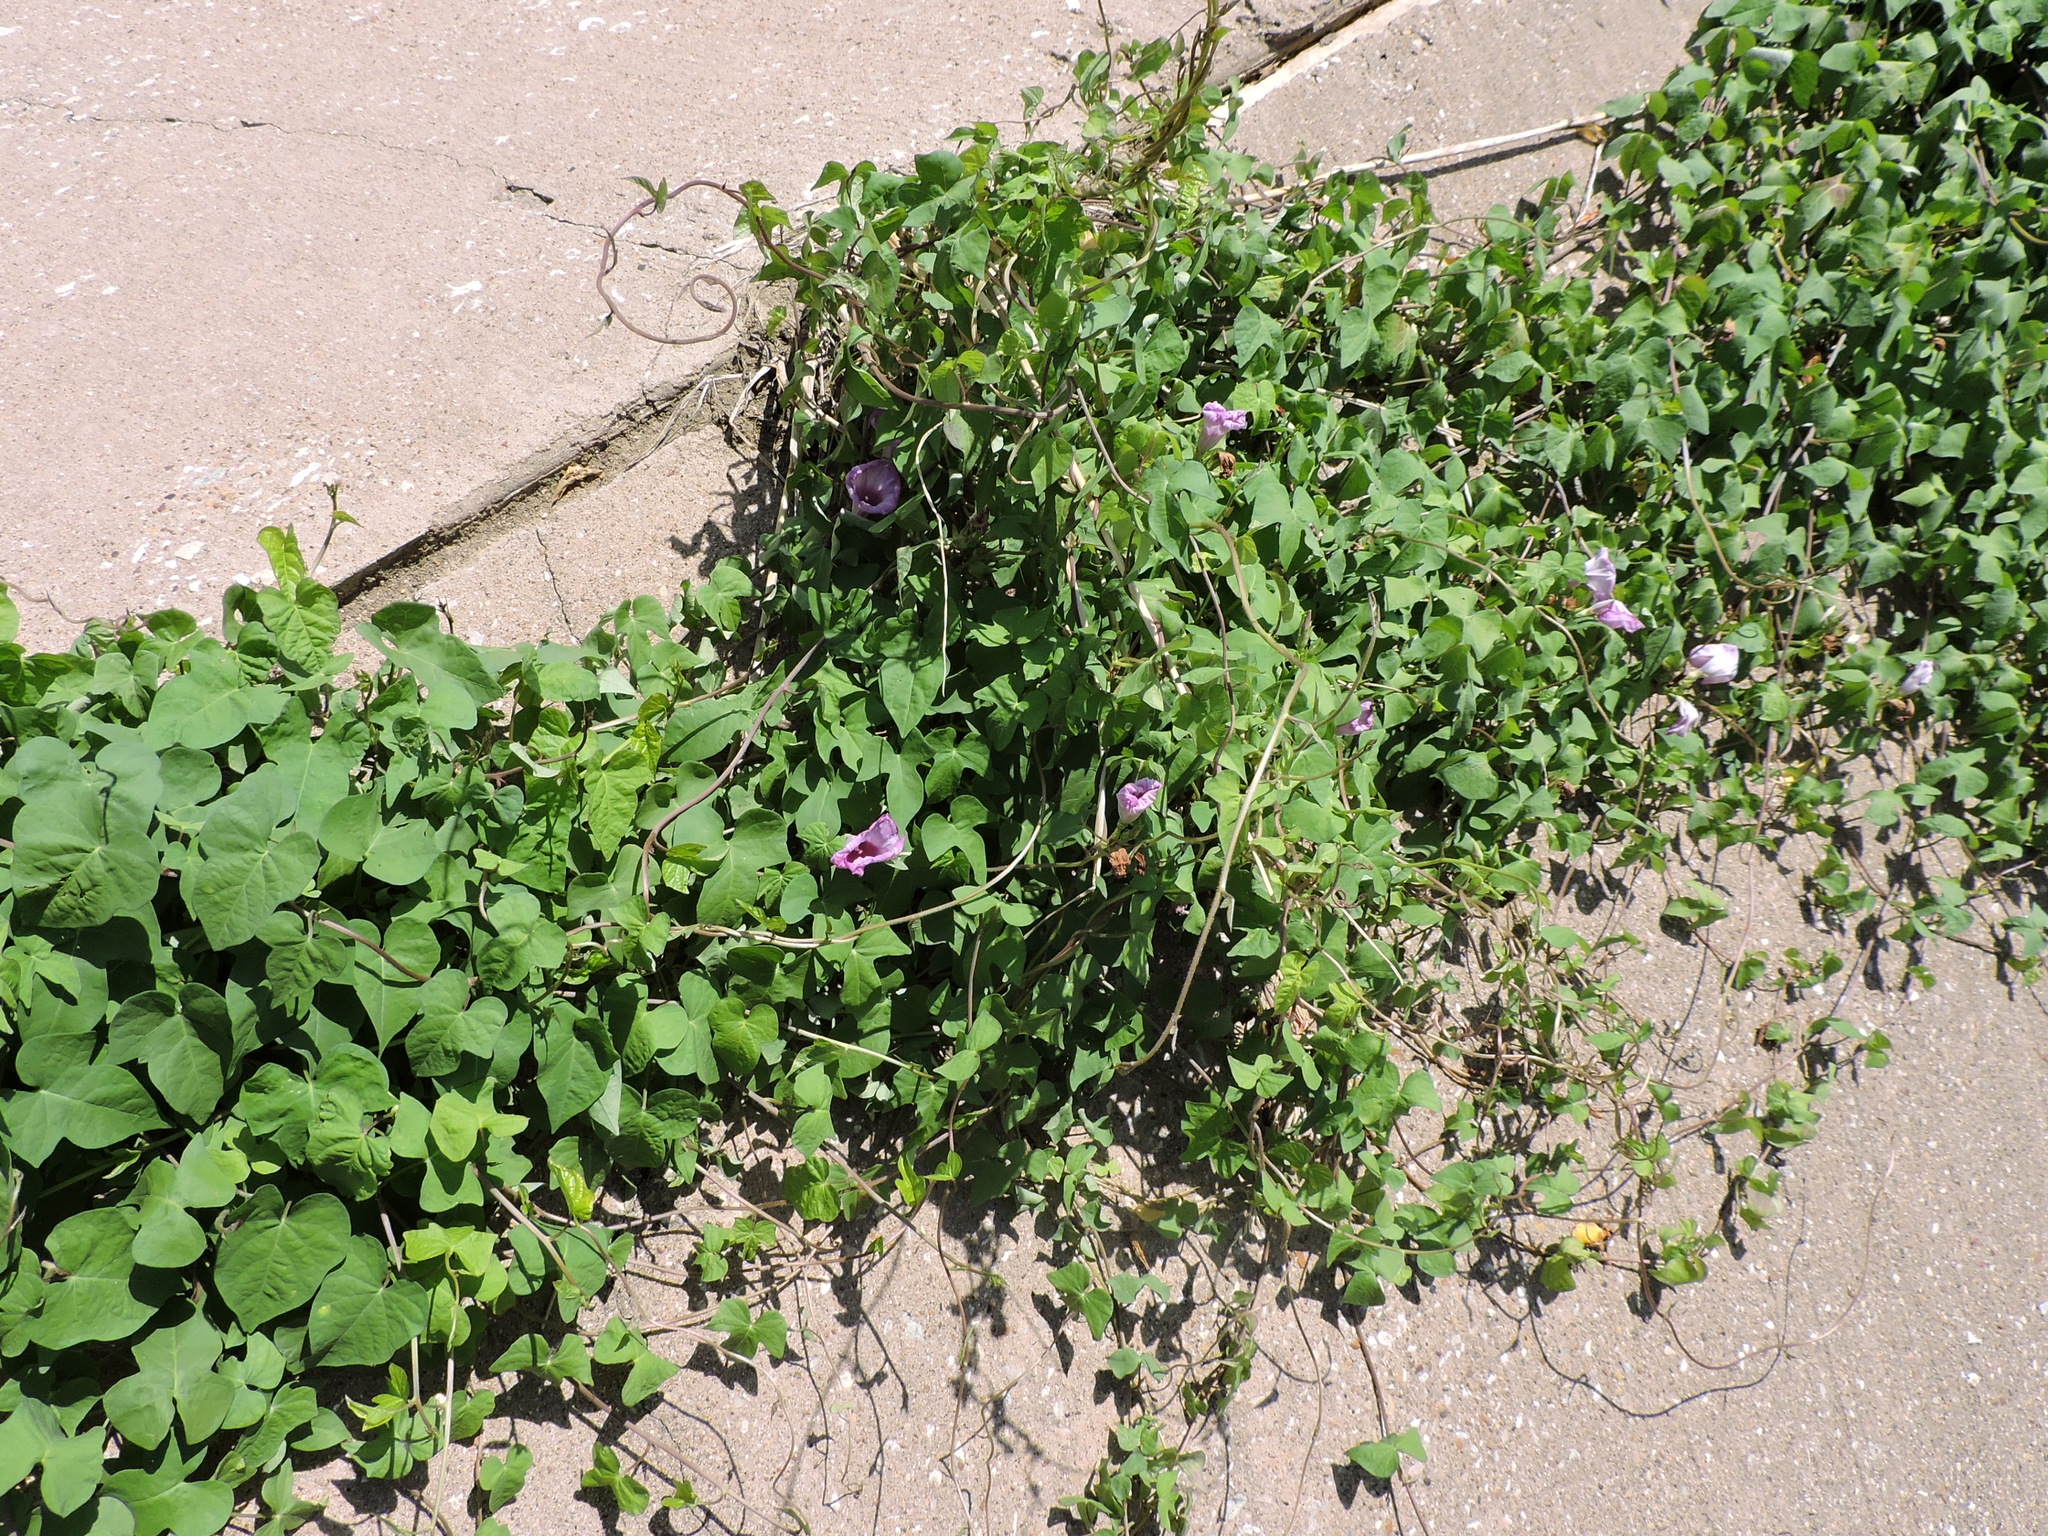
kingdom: Plantae
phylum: Tracheophyta
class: Magnoliopsida
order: Solanales
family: Convolvulaceae
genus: Ipomoea
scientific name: Ipomoea cordatotriloba
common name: Cotton morning glory
